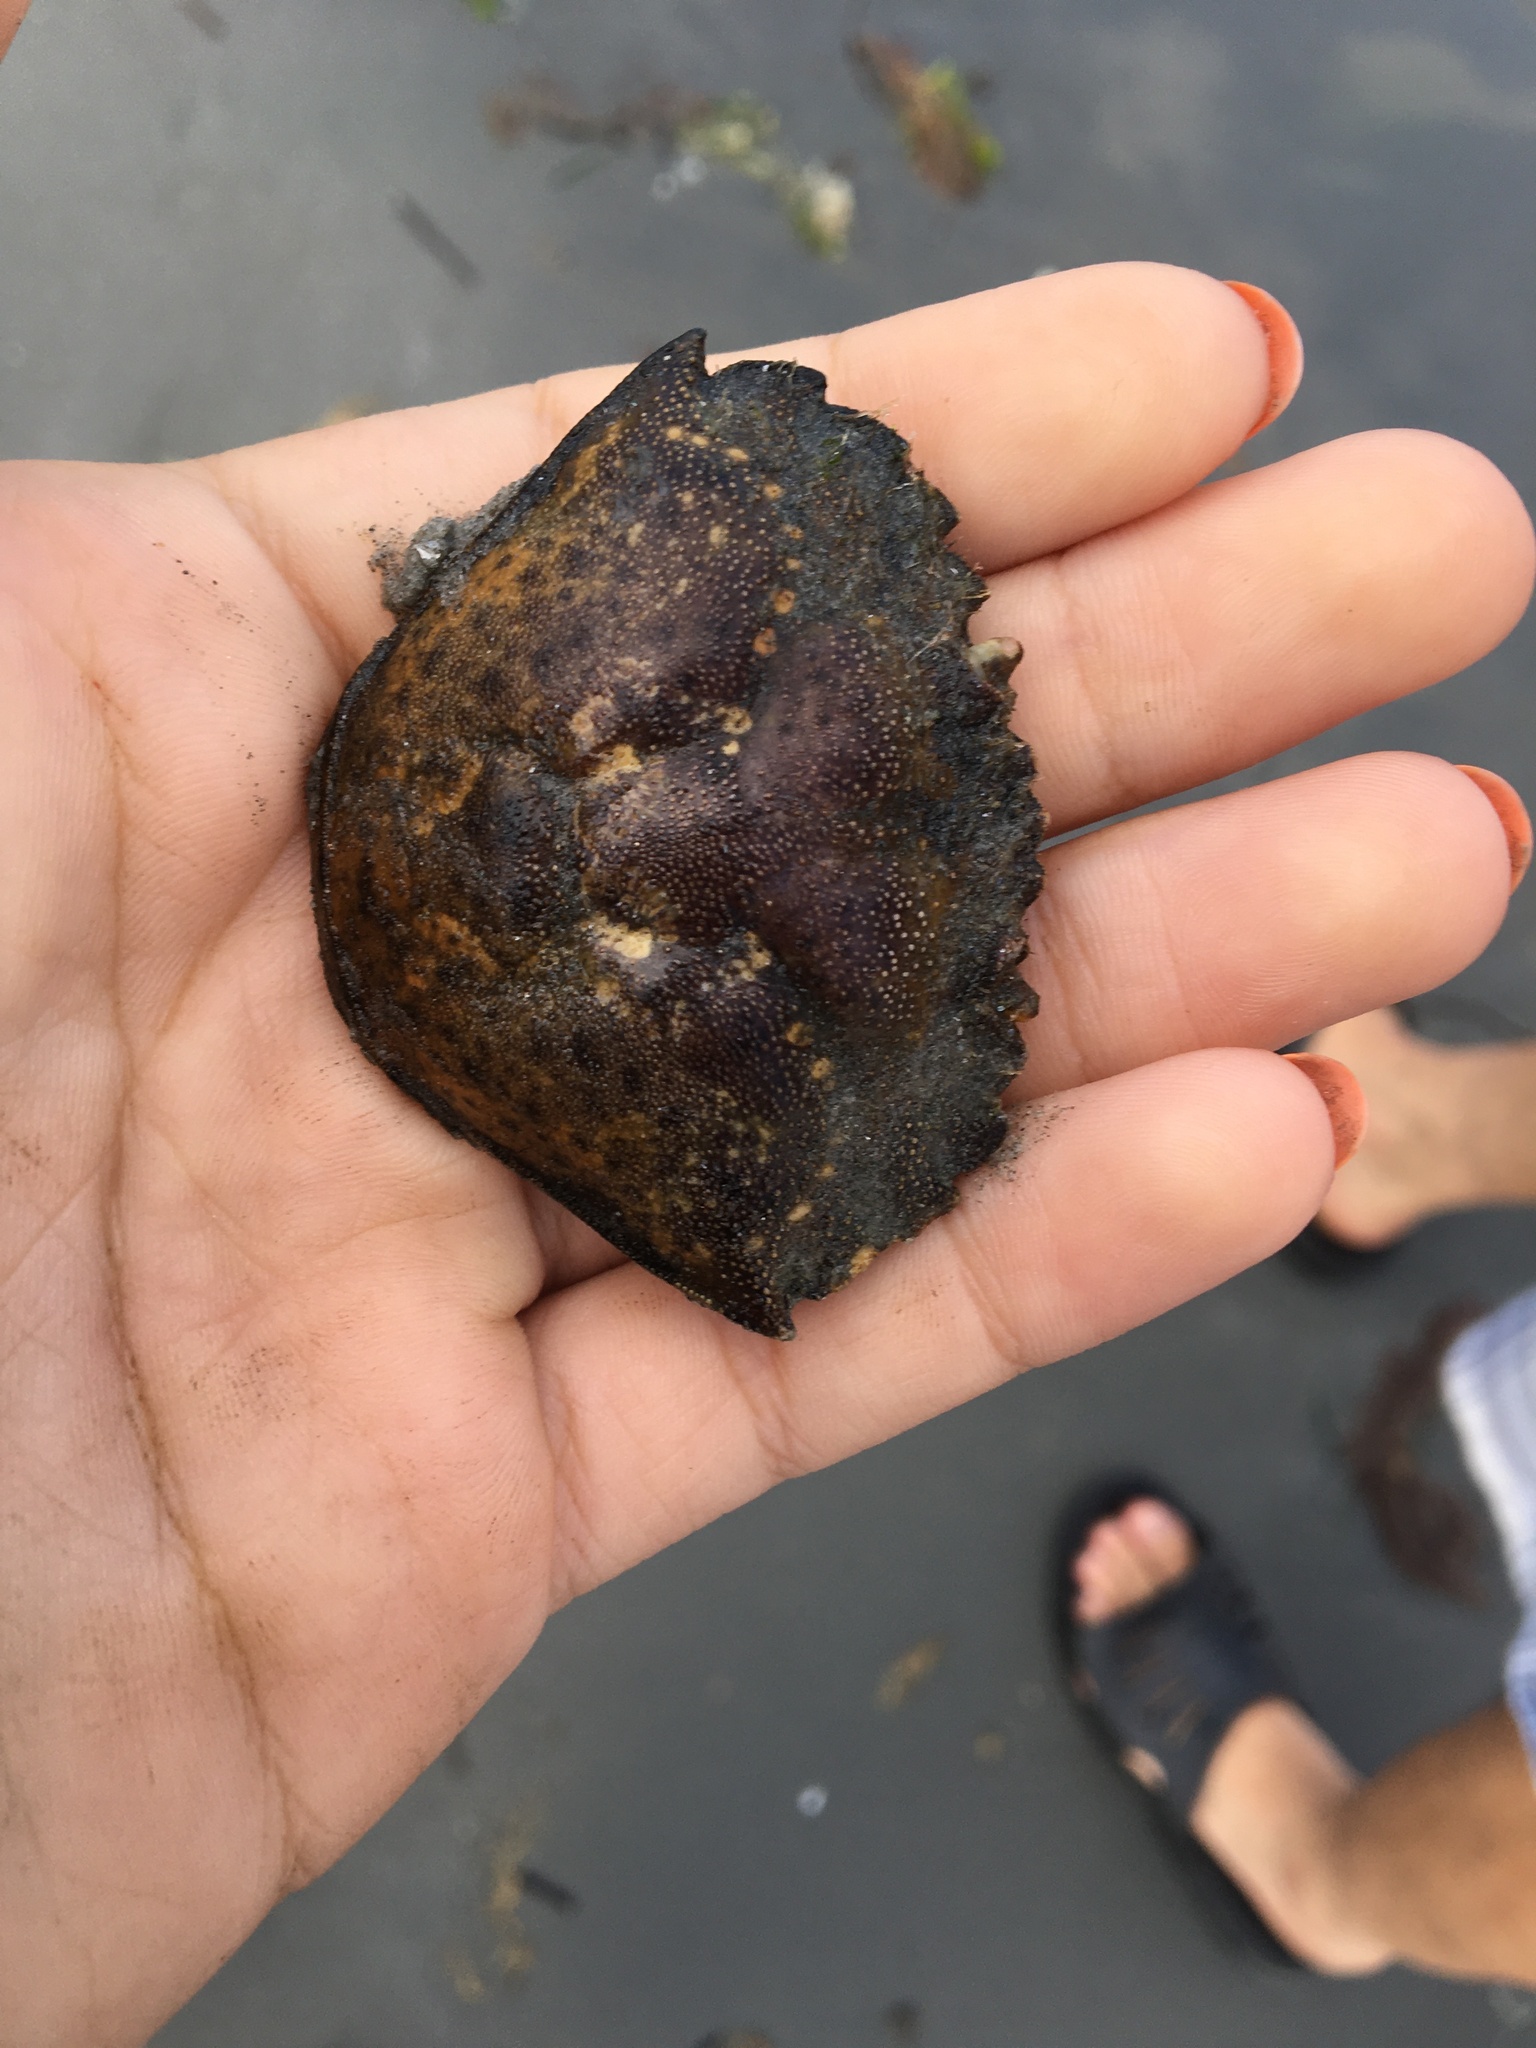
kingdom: Animalia
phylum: Arthropoda
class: Malacostraca
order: Decapoda
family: Carcinidae
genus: Carcinus
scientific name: Carcinus maenas
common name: European green crab
